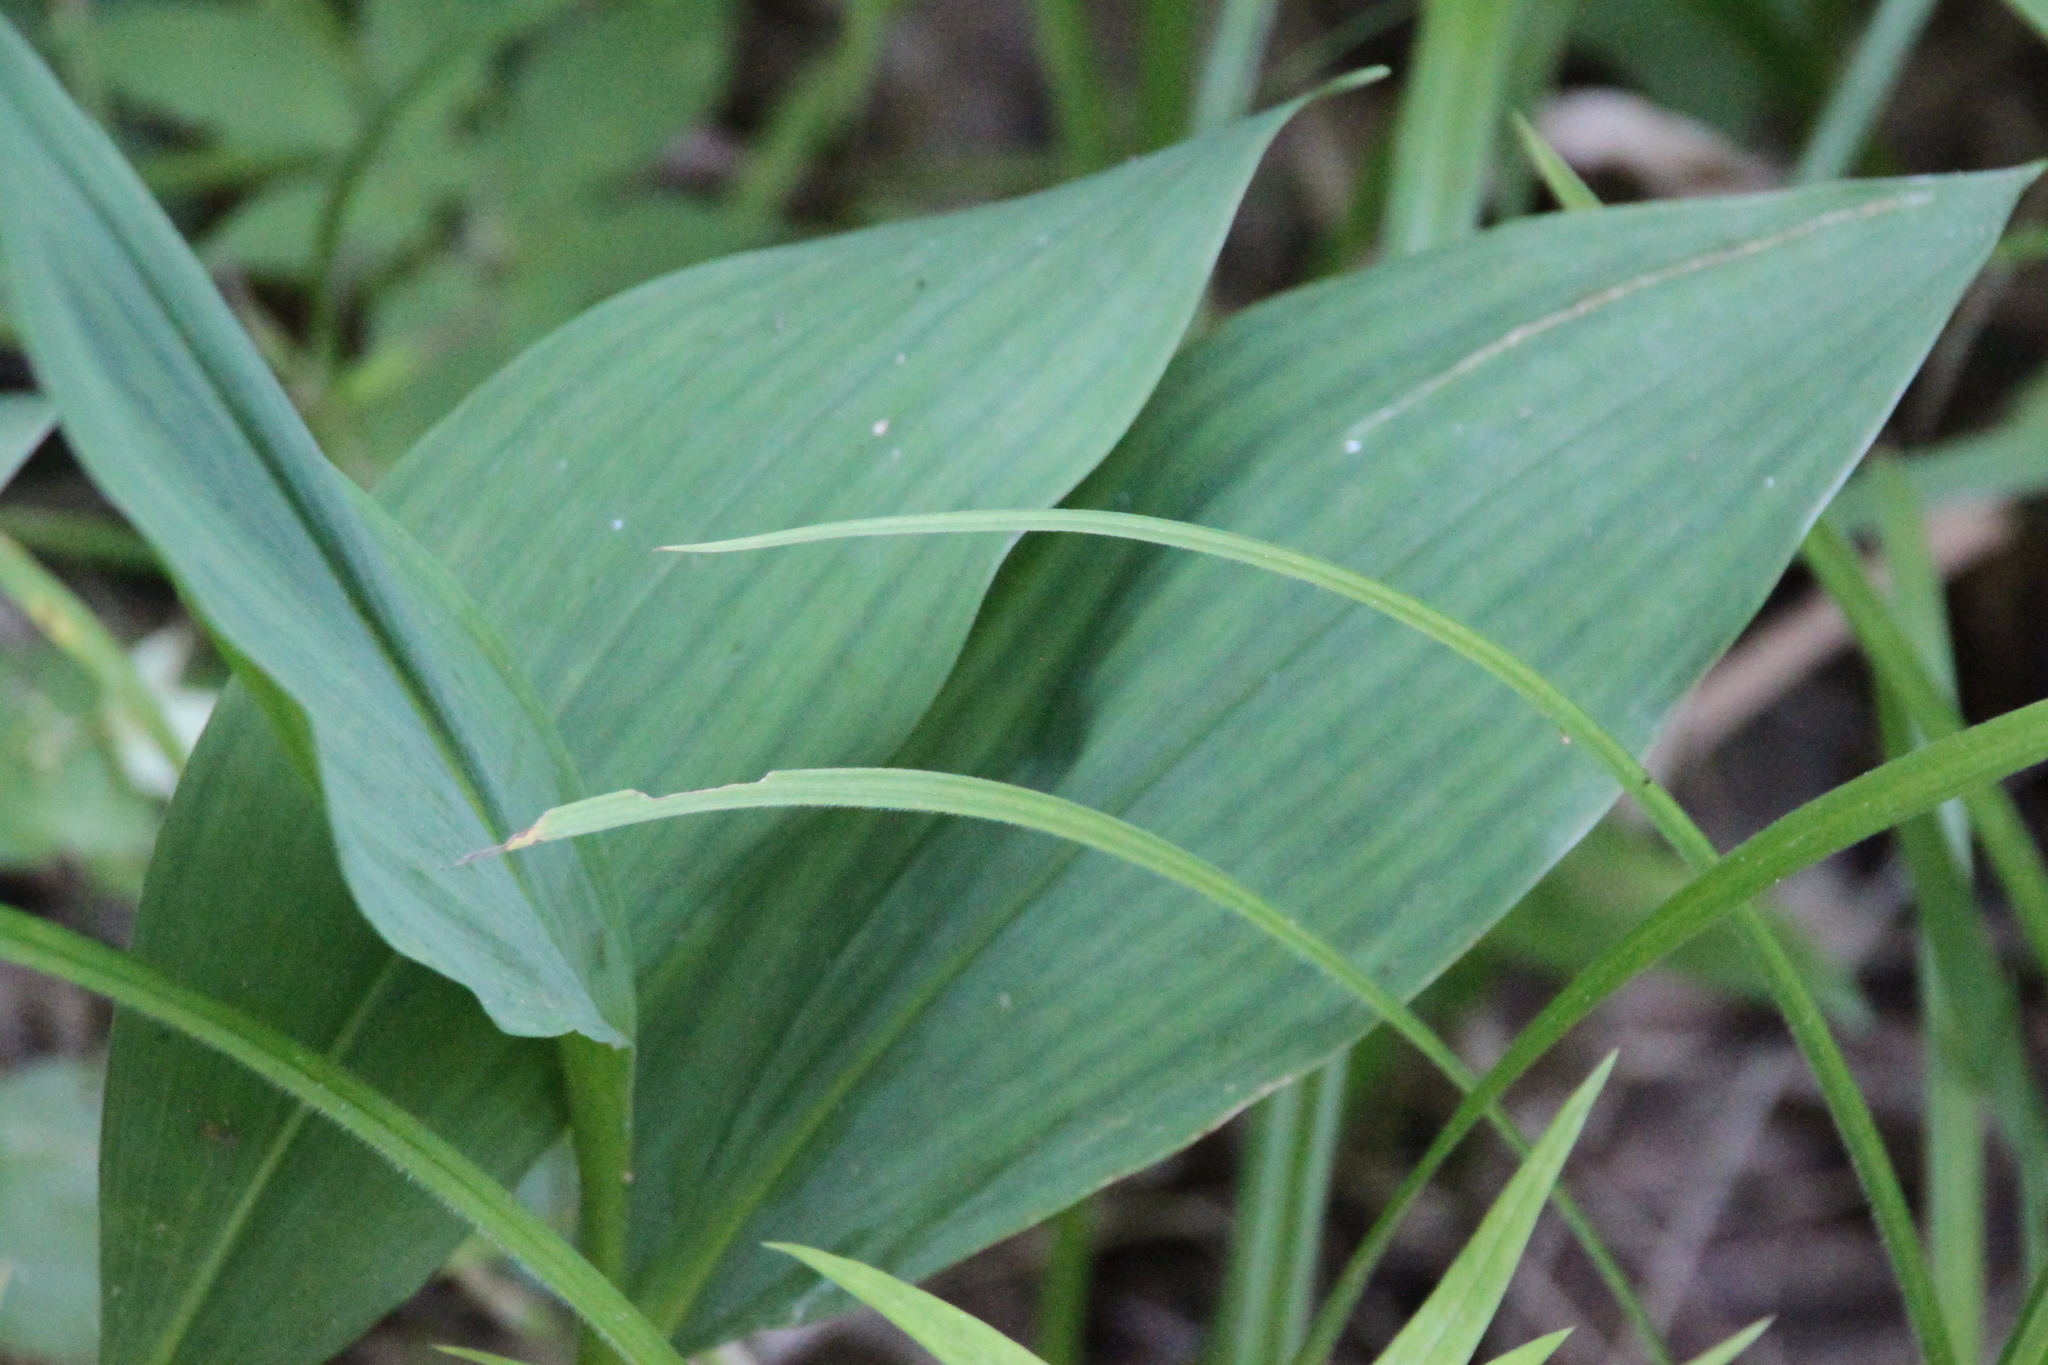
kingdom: Plantae
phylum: Tracheophyta
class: Liliopsida
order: Asparagales
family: Asparagaceae
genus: Convallaria
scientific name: Convallaria majalis
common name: Lily-of-the-valley
